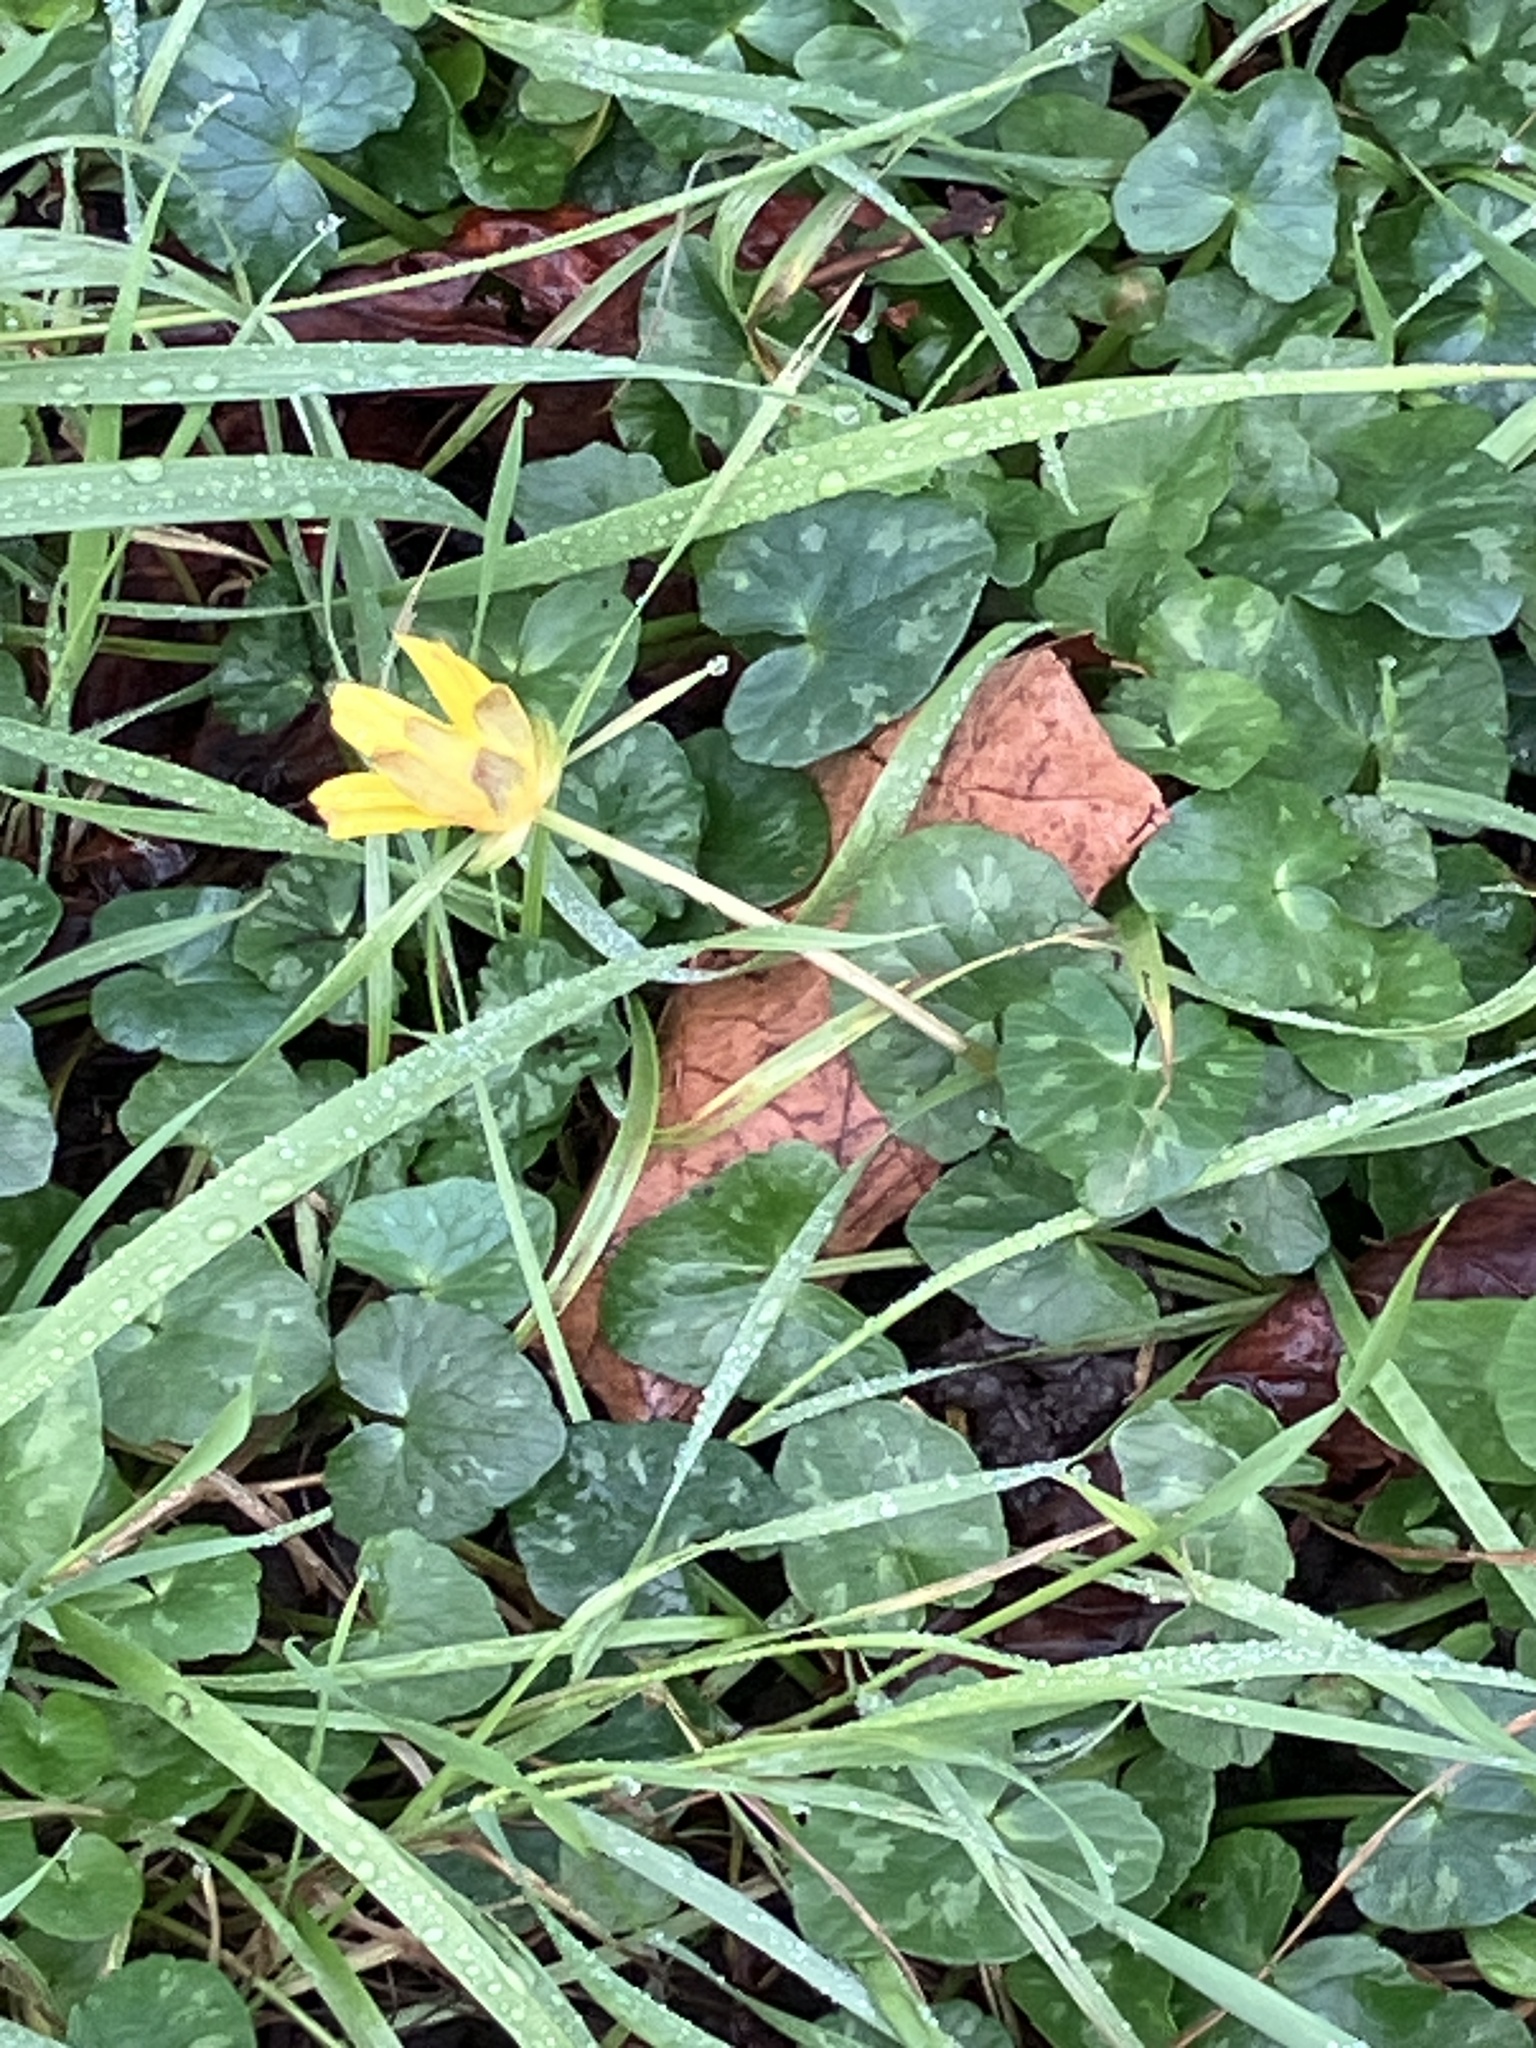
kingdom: Plantae
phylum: Tracheophyta
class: Magnoliopsida
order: Ranunculales
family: Ranunculaceae
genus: Ficaria
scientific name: Ficaria verna
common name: Lesser celandine
